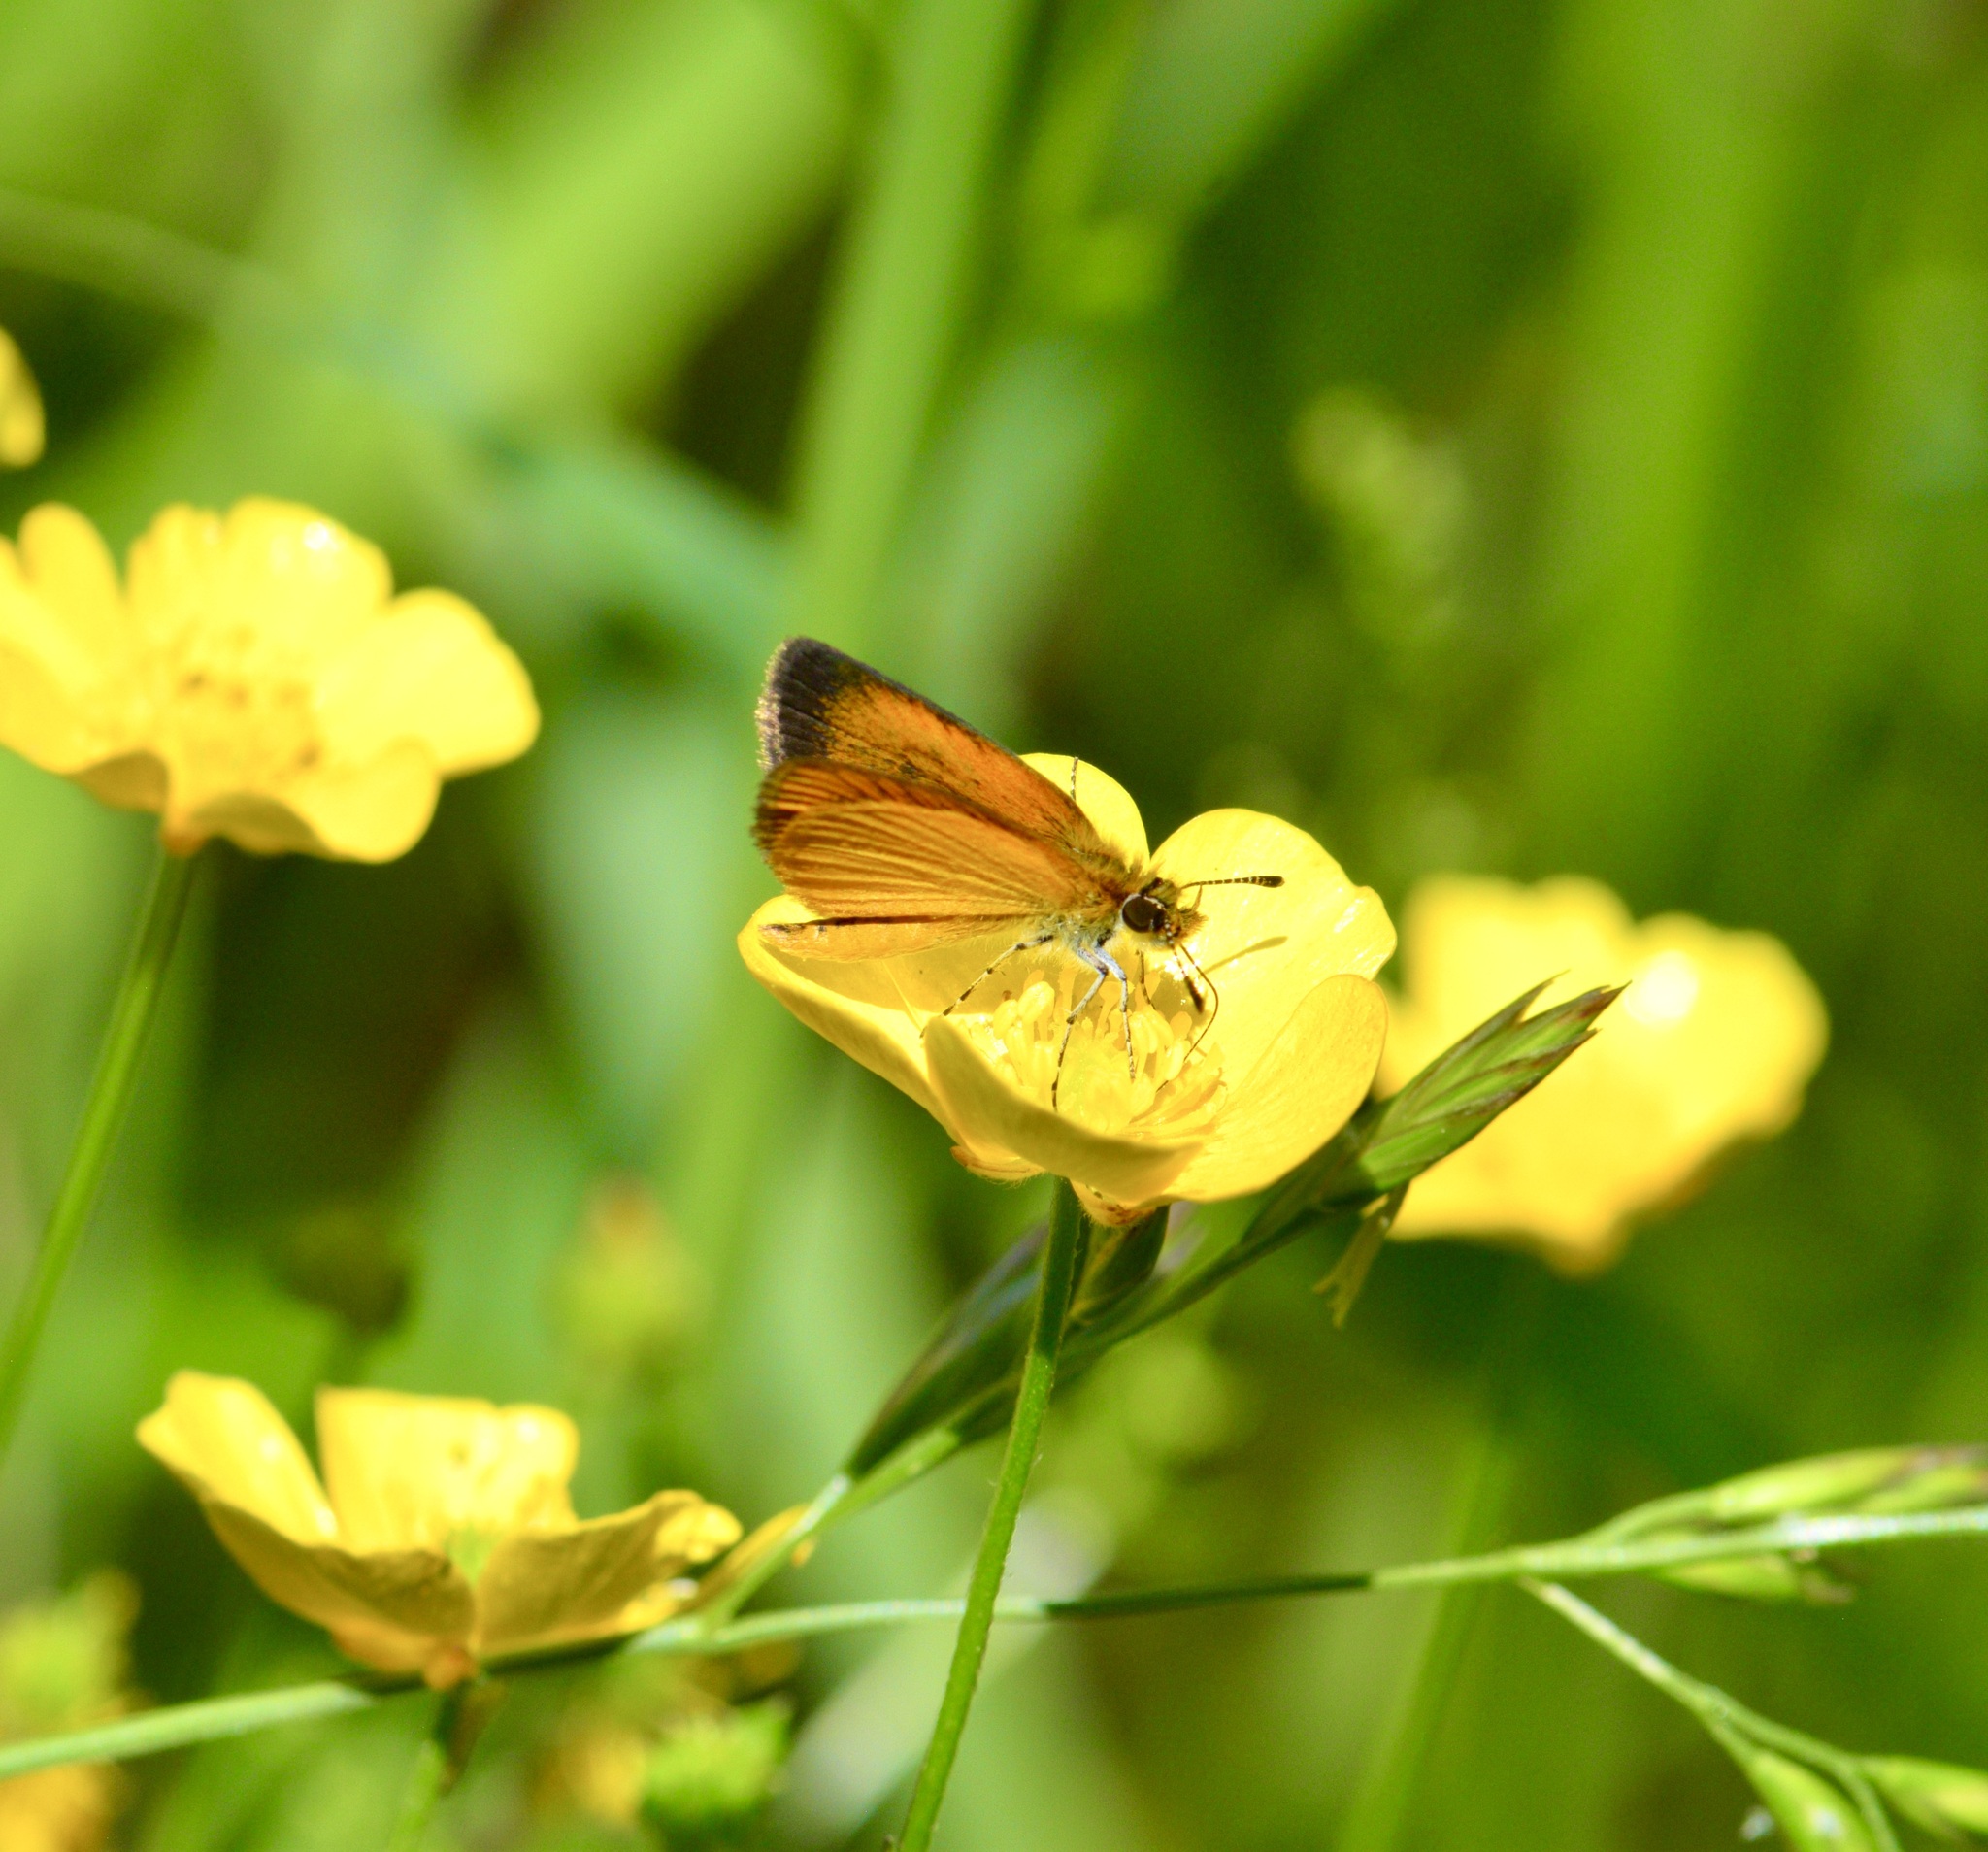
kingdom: Animalia
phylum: Arthropoda
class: Insecta
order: Lepidoptera
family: Hesperiidae
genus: Ancyloxypha
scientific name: Ancyloxypha numitor
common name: Least skipper
